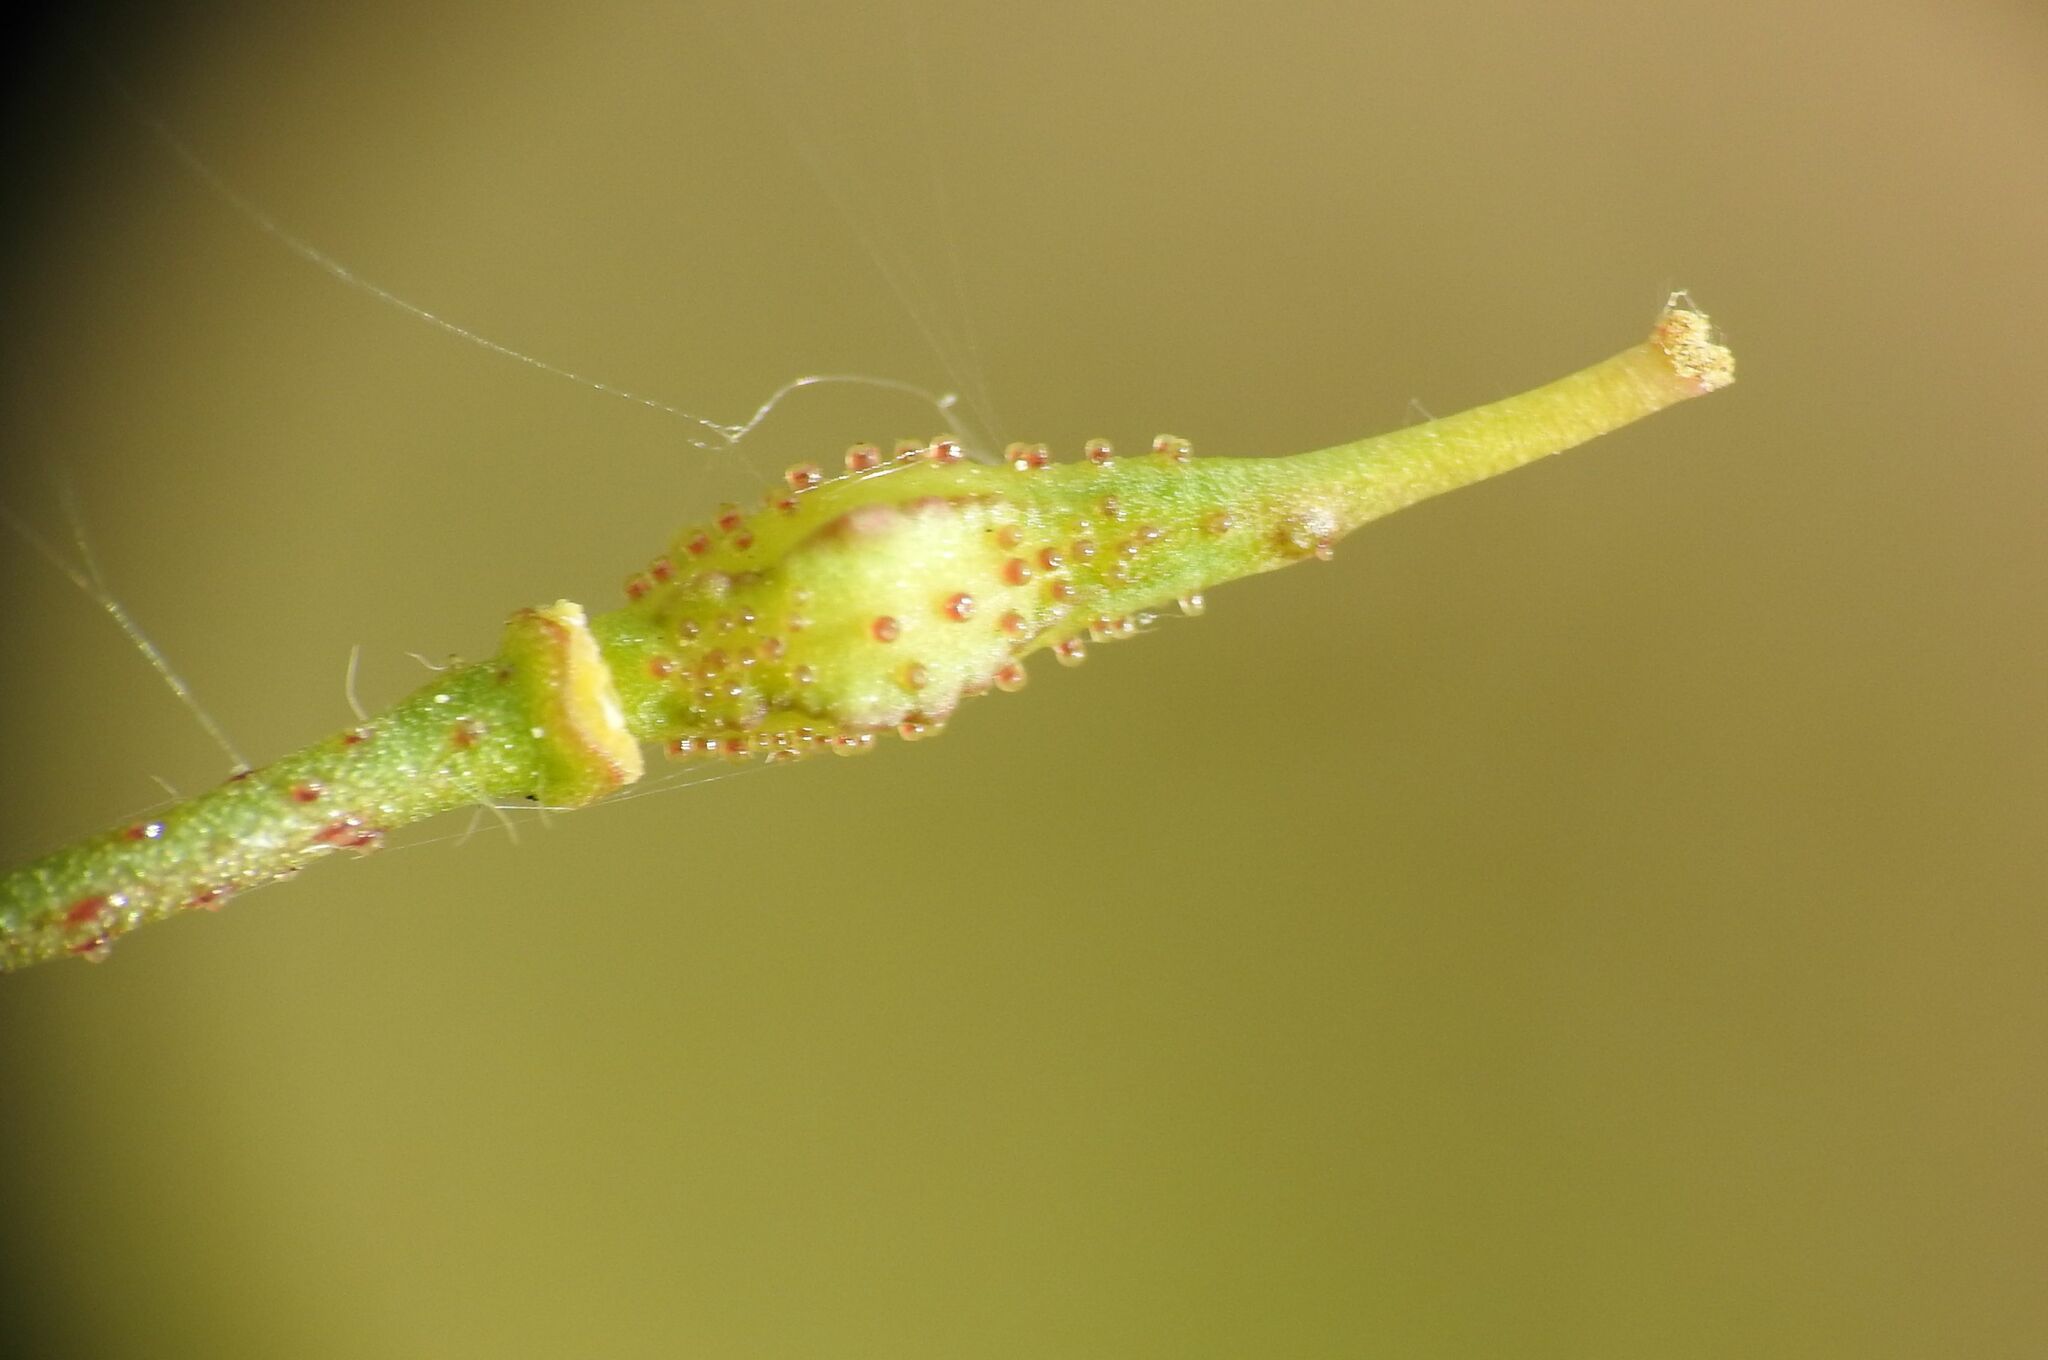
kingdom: Plantae
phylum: Tracheophyta
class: Magnoliopsida
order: Brassicales
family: Brassicaceae
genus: Bunias
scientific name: Bunias erucago
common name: Southern warty-cabbage
